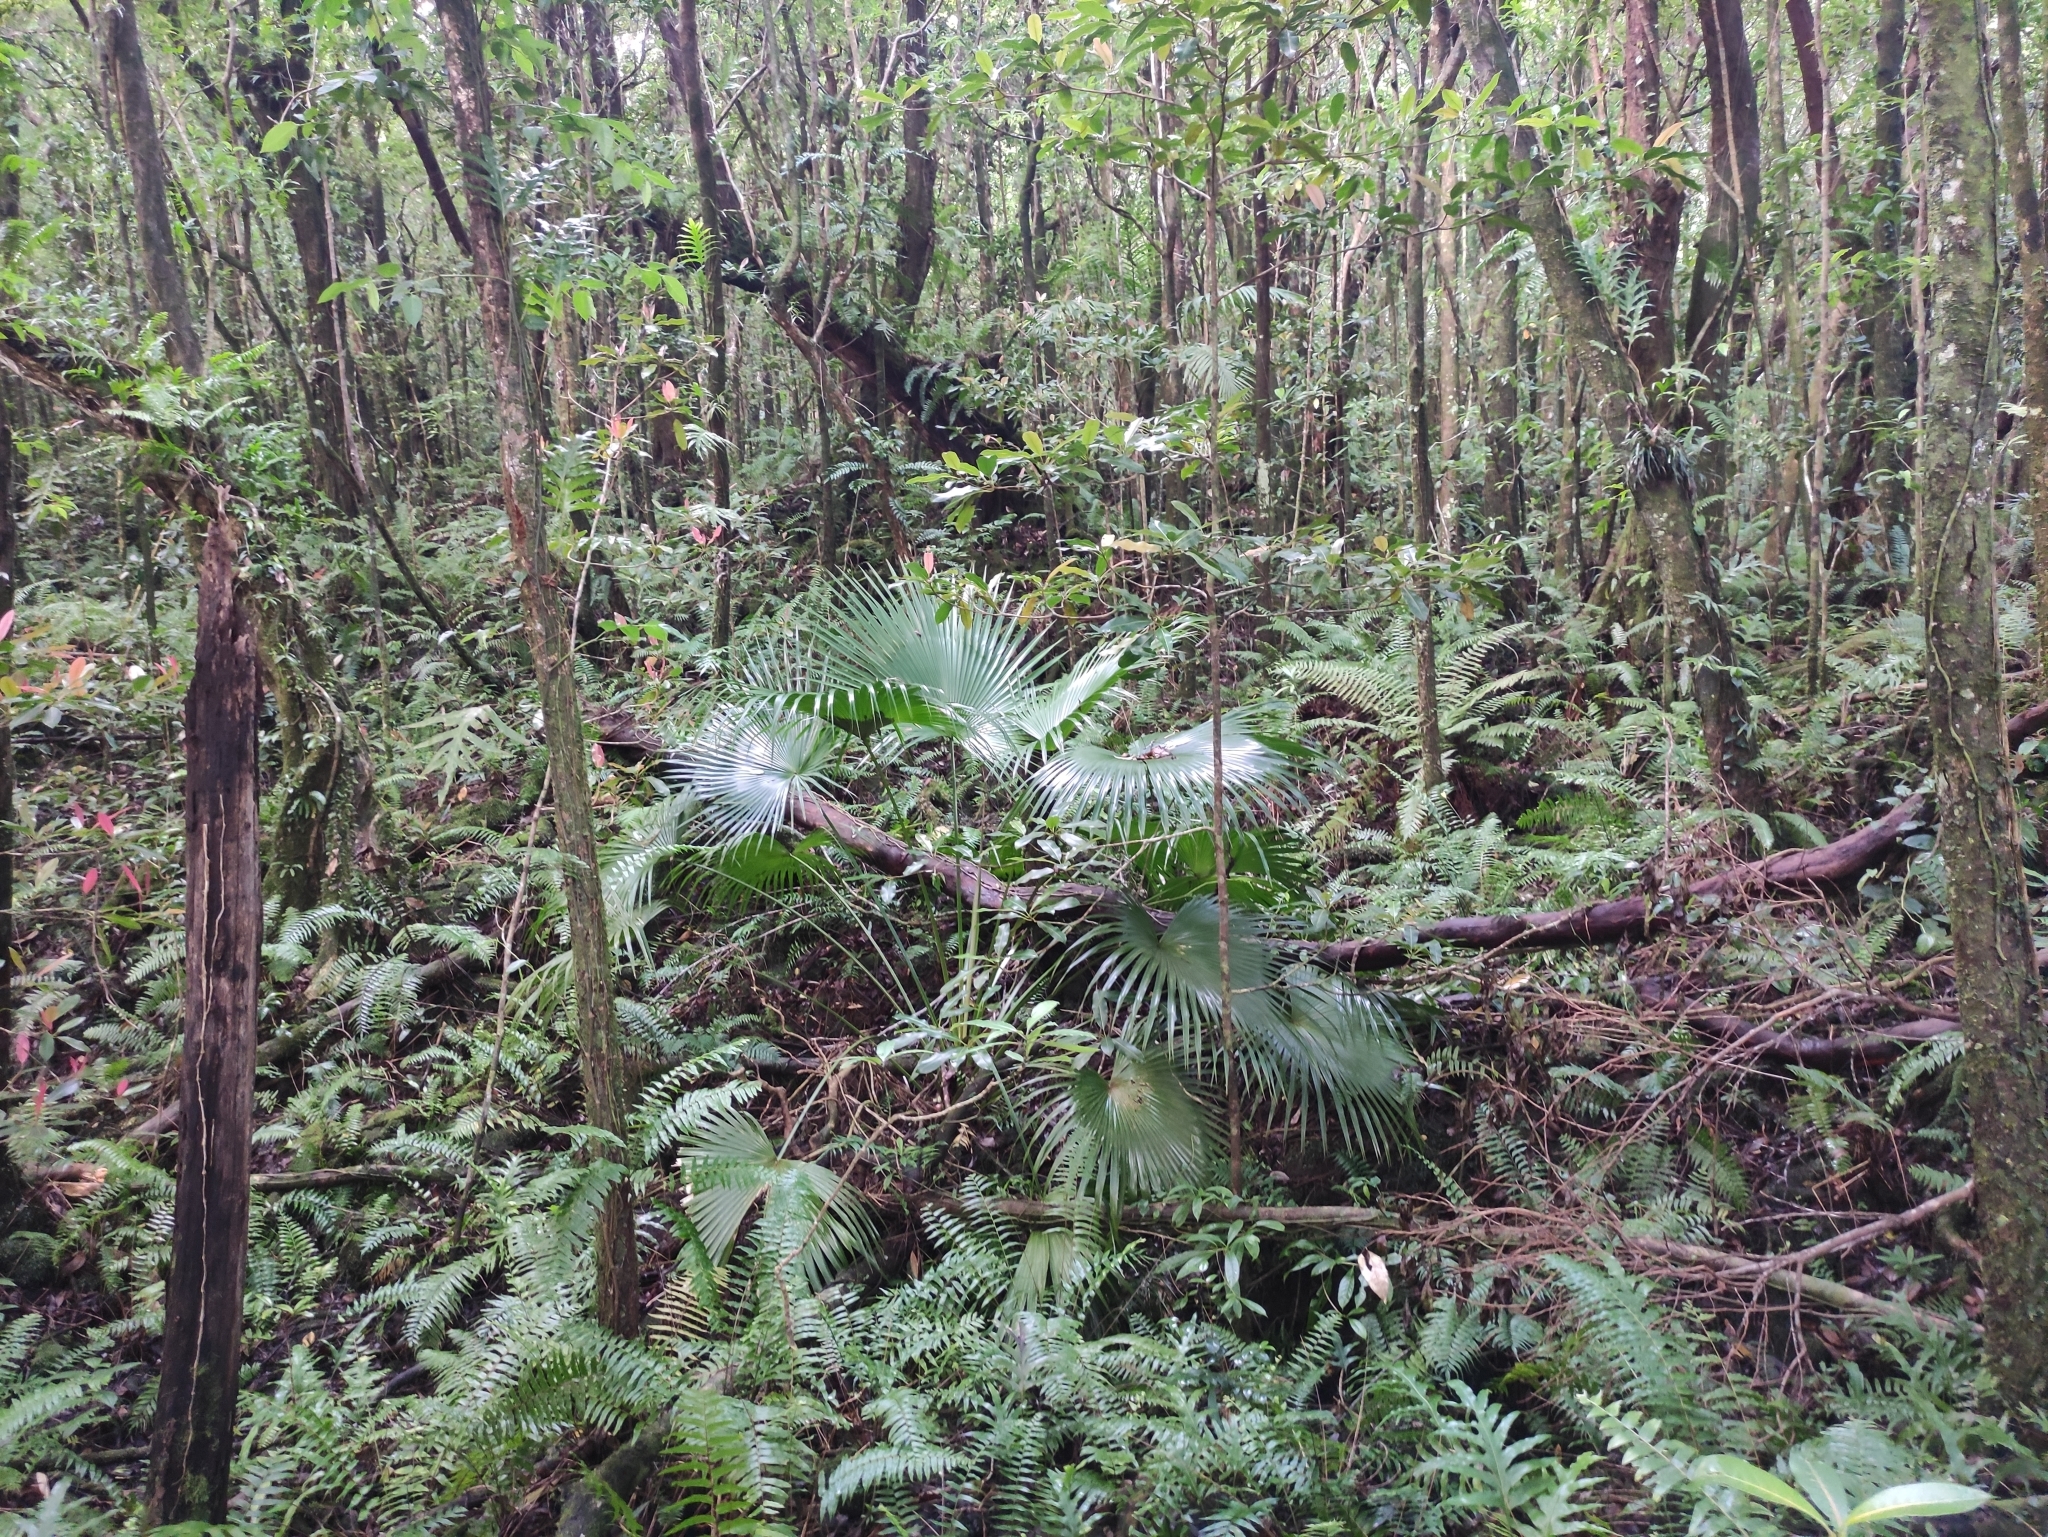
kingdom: Plantae
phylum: Tracheophyta
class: Liliopsida
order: Arecales
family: Arecaceae
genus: Livistona
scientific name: Livistona chinensis
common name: Fountain palm
